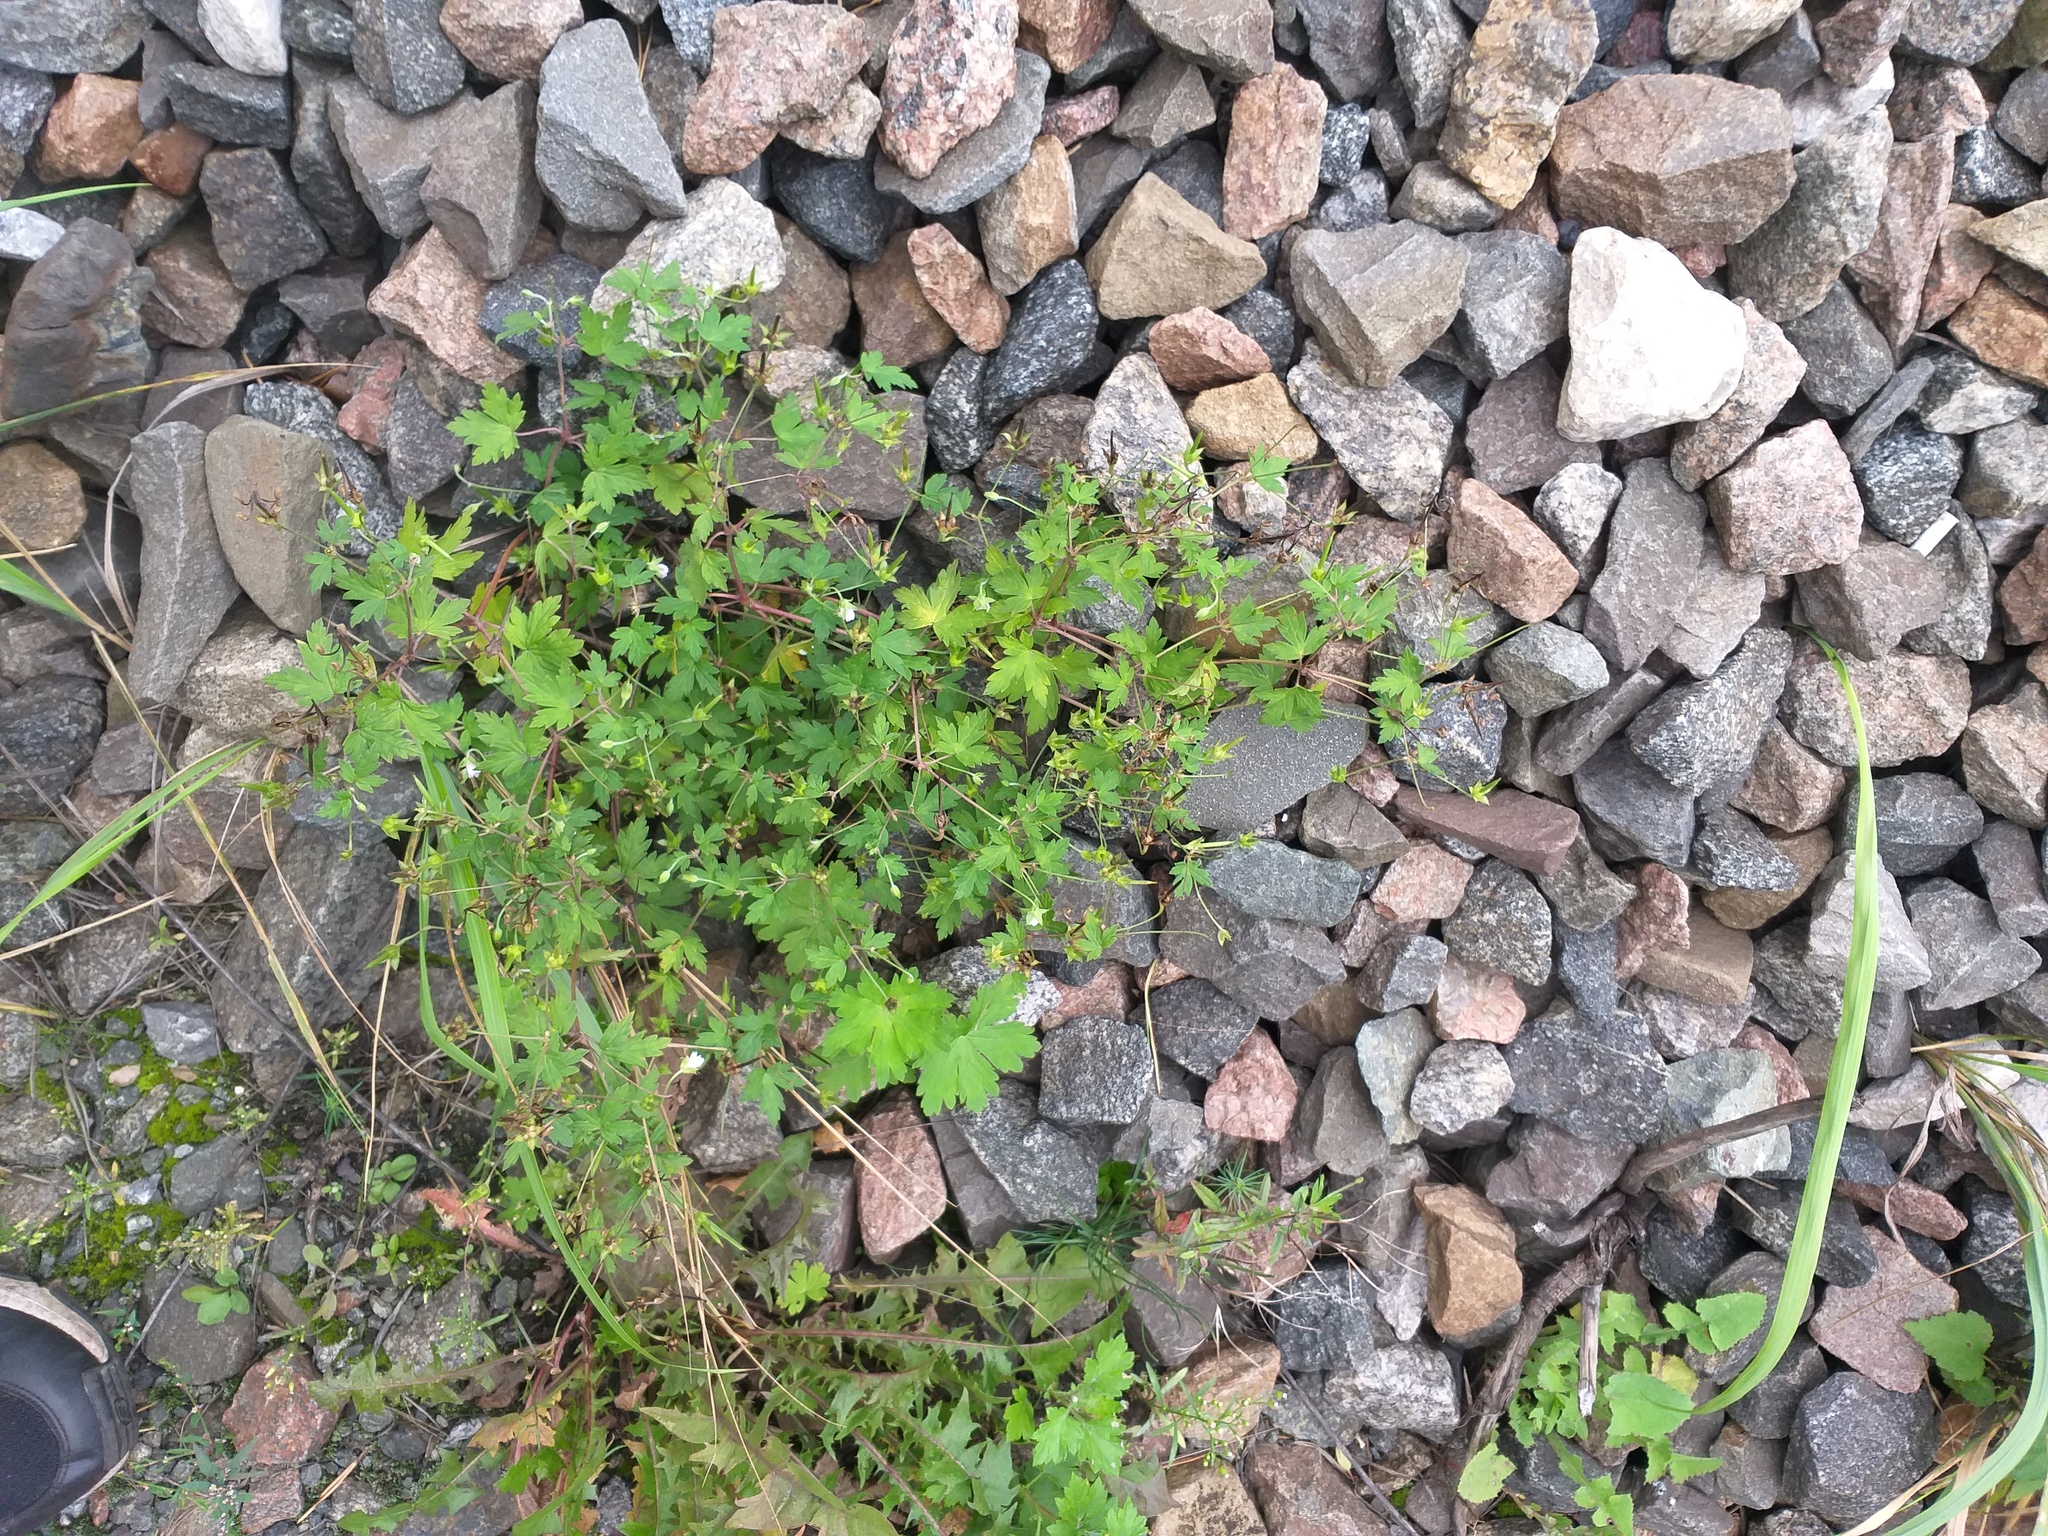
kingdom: Plantae
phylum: Tracheophyta
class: Magnoliopsida
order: Geraniales
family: Geraniaceae
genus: Geranium
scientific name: Geranium sibiricum
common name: Siberian crane's-bill
